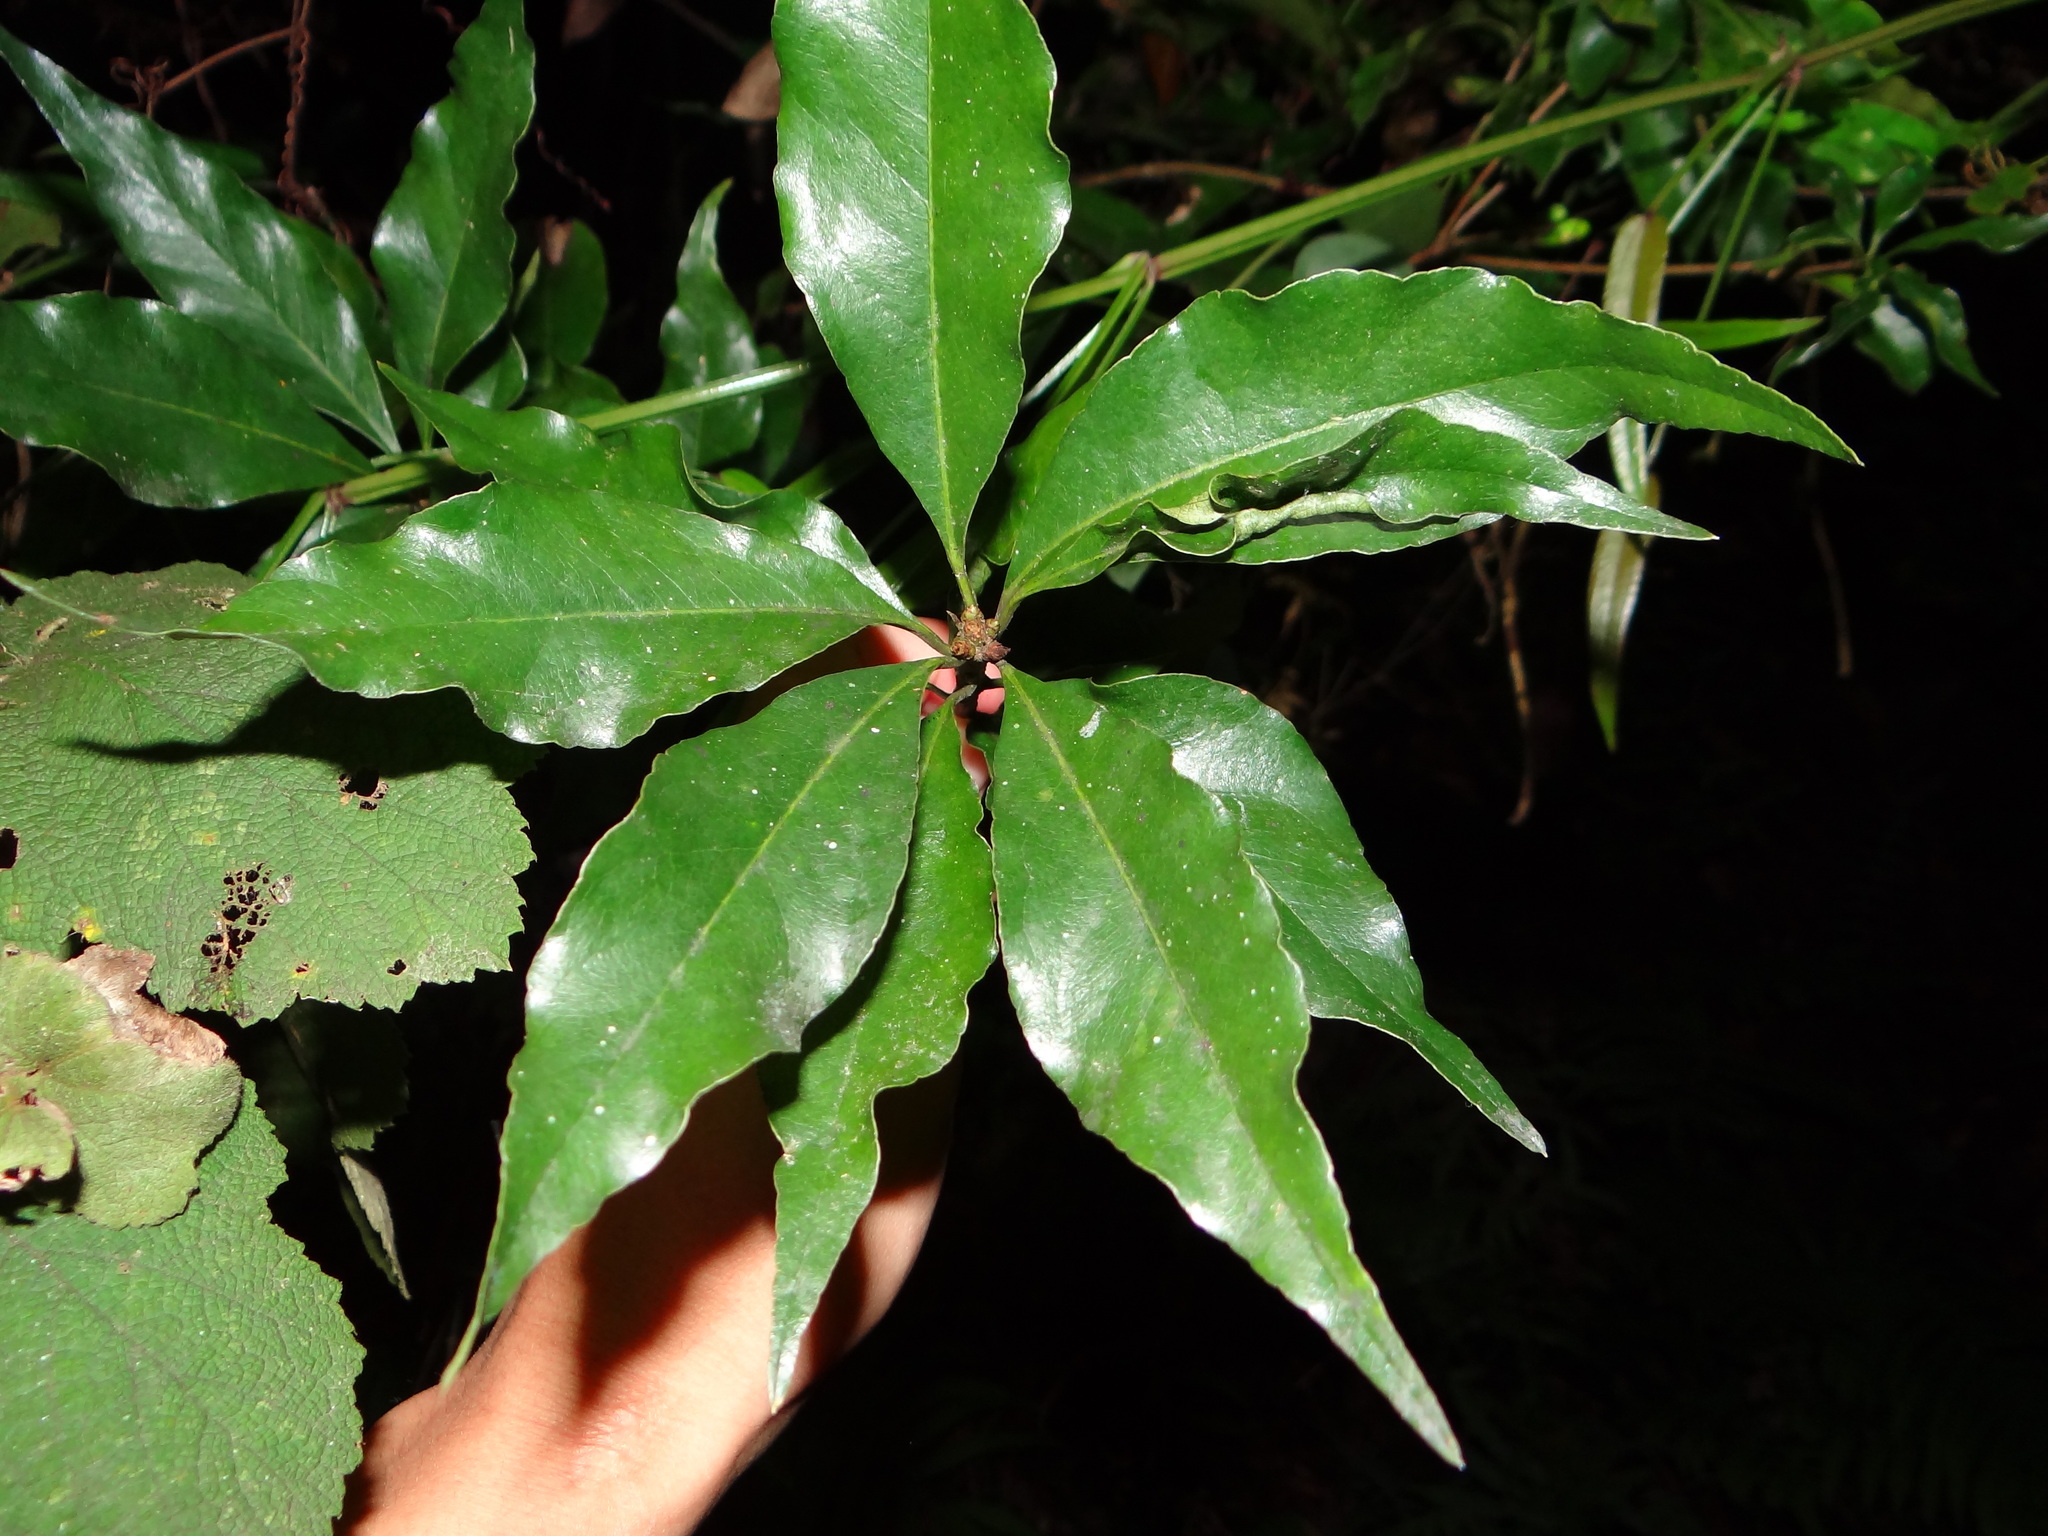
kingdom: Plantae
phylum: Tracheophyta
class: Magnoliopsida
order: Apiales
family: Pittosporaceae
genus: Pittosporum
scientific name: Pittosporum illicioides
